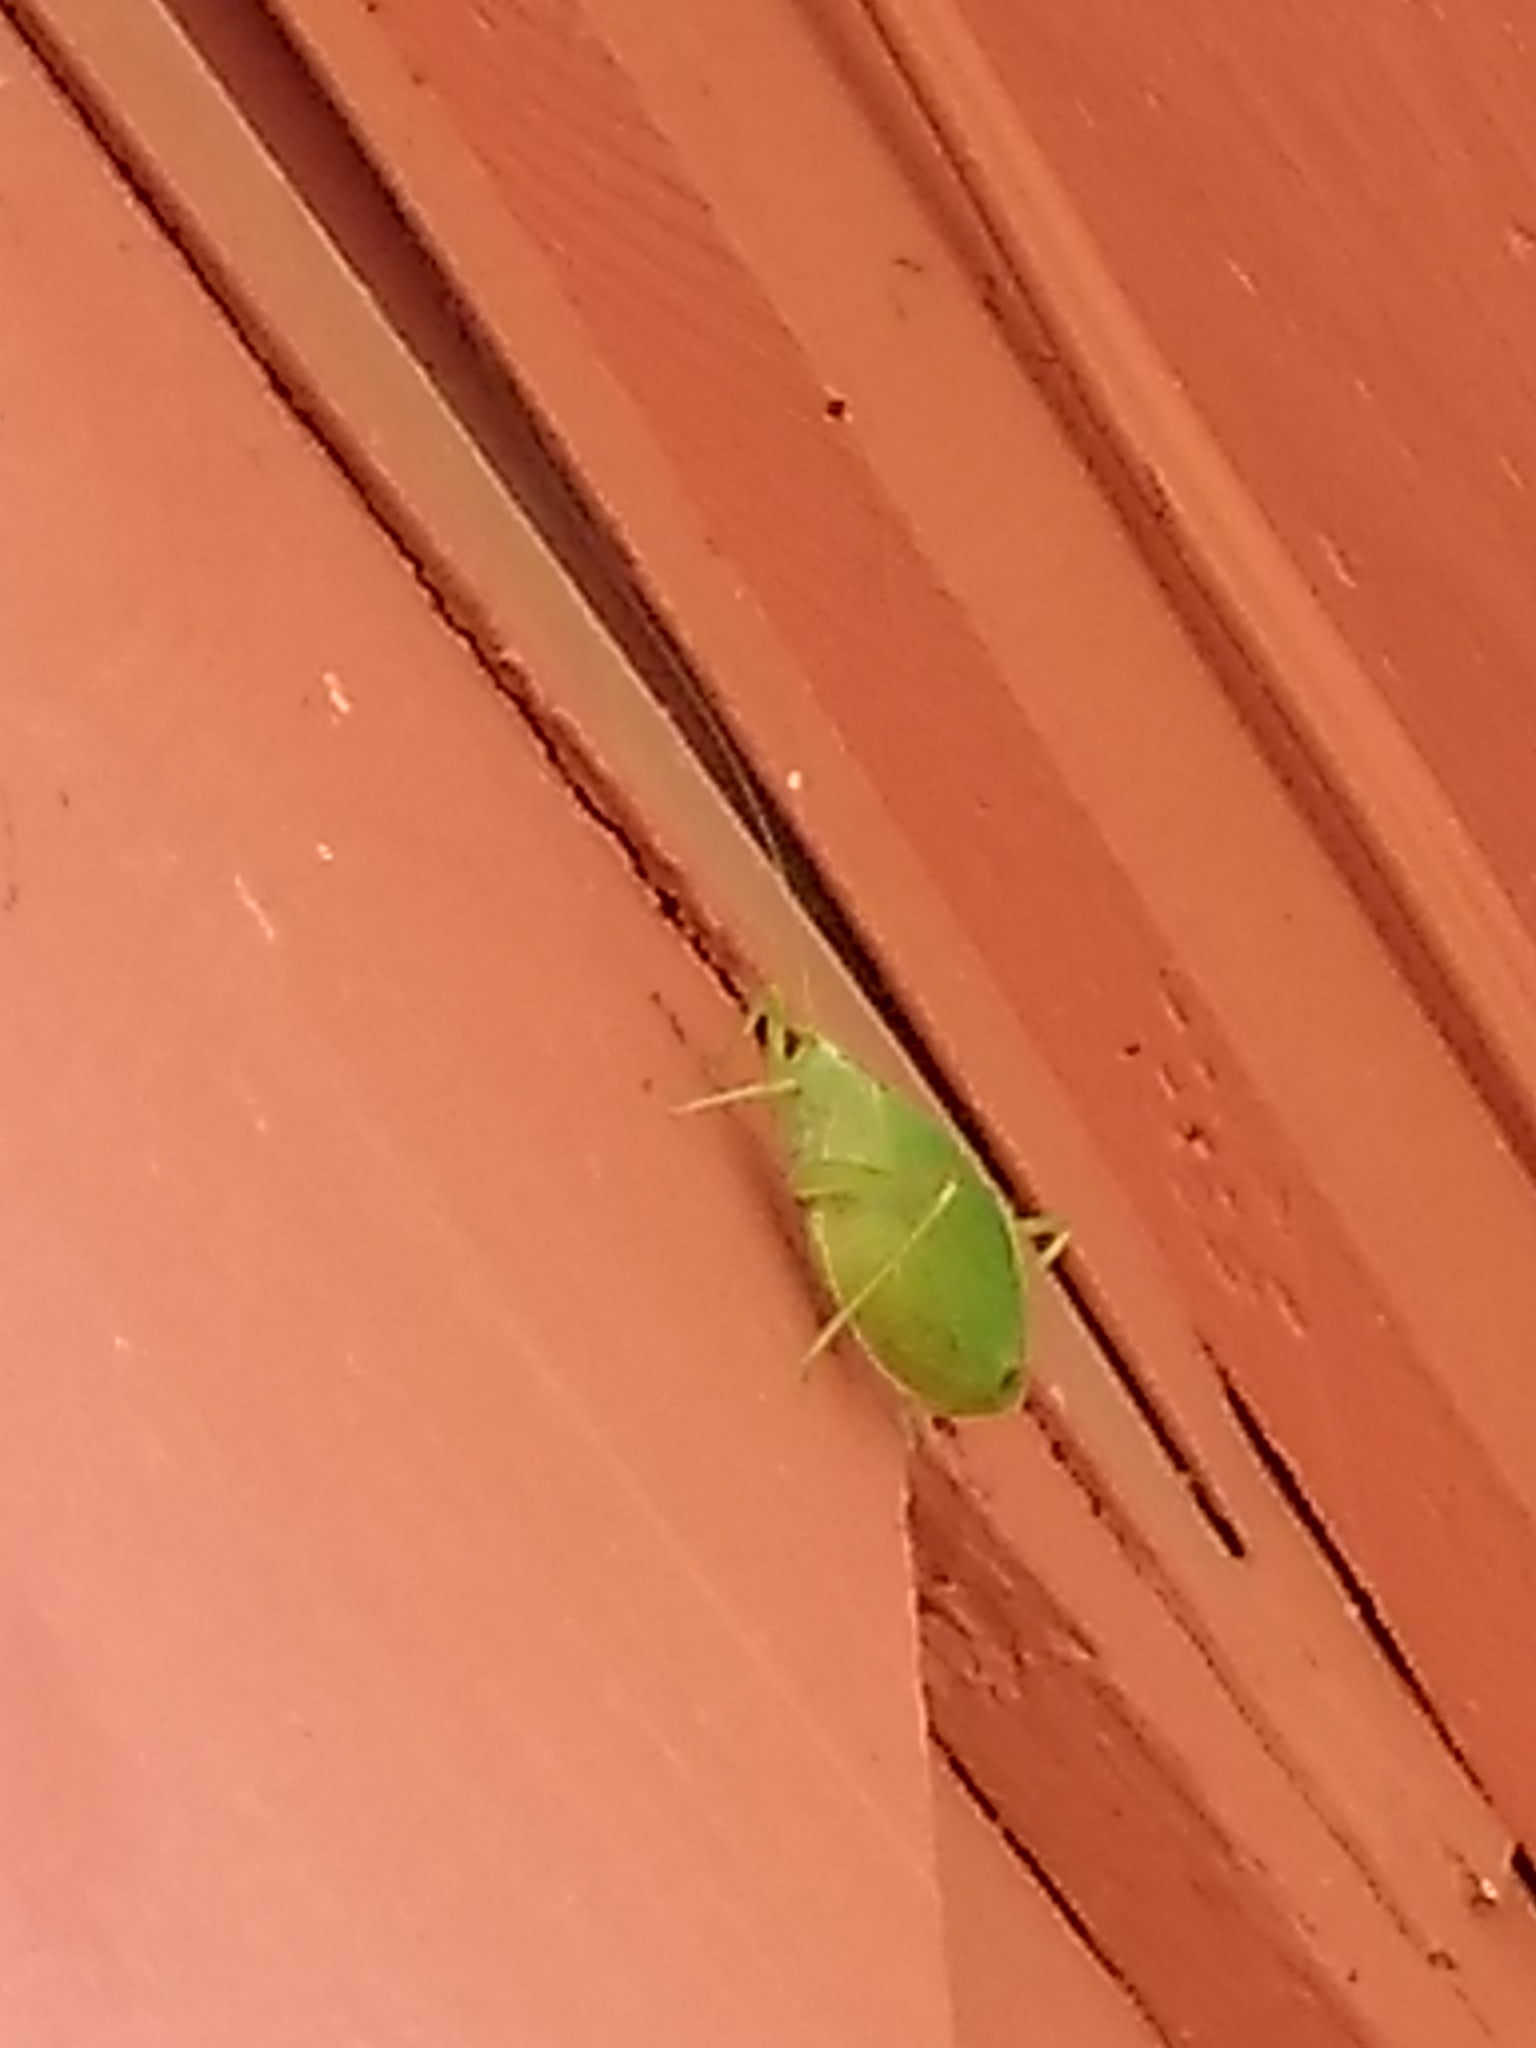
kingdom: Animalia
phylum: Arthropoda
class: Insecta
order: Orthoptera
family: Tettigoniidae
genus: Pterophylla
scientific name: Pterophylla camellifolia
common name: Common true katydid
